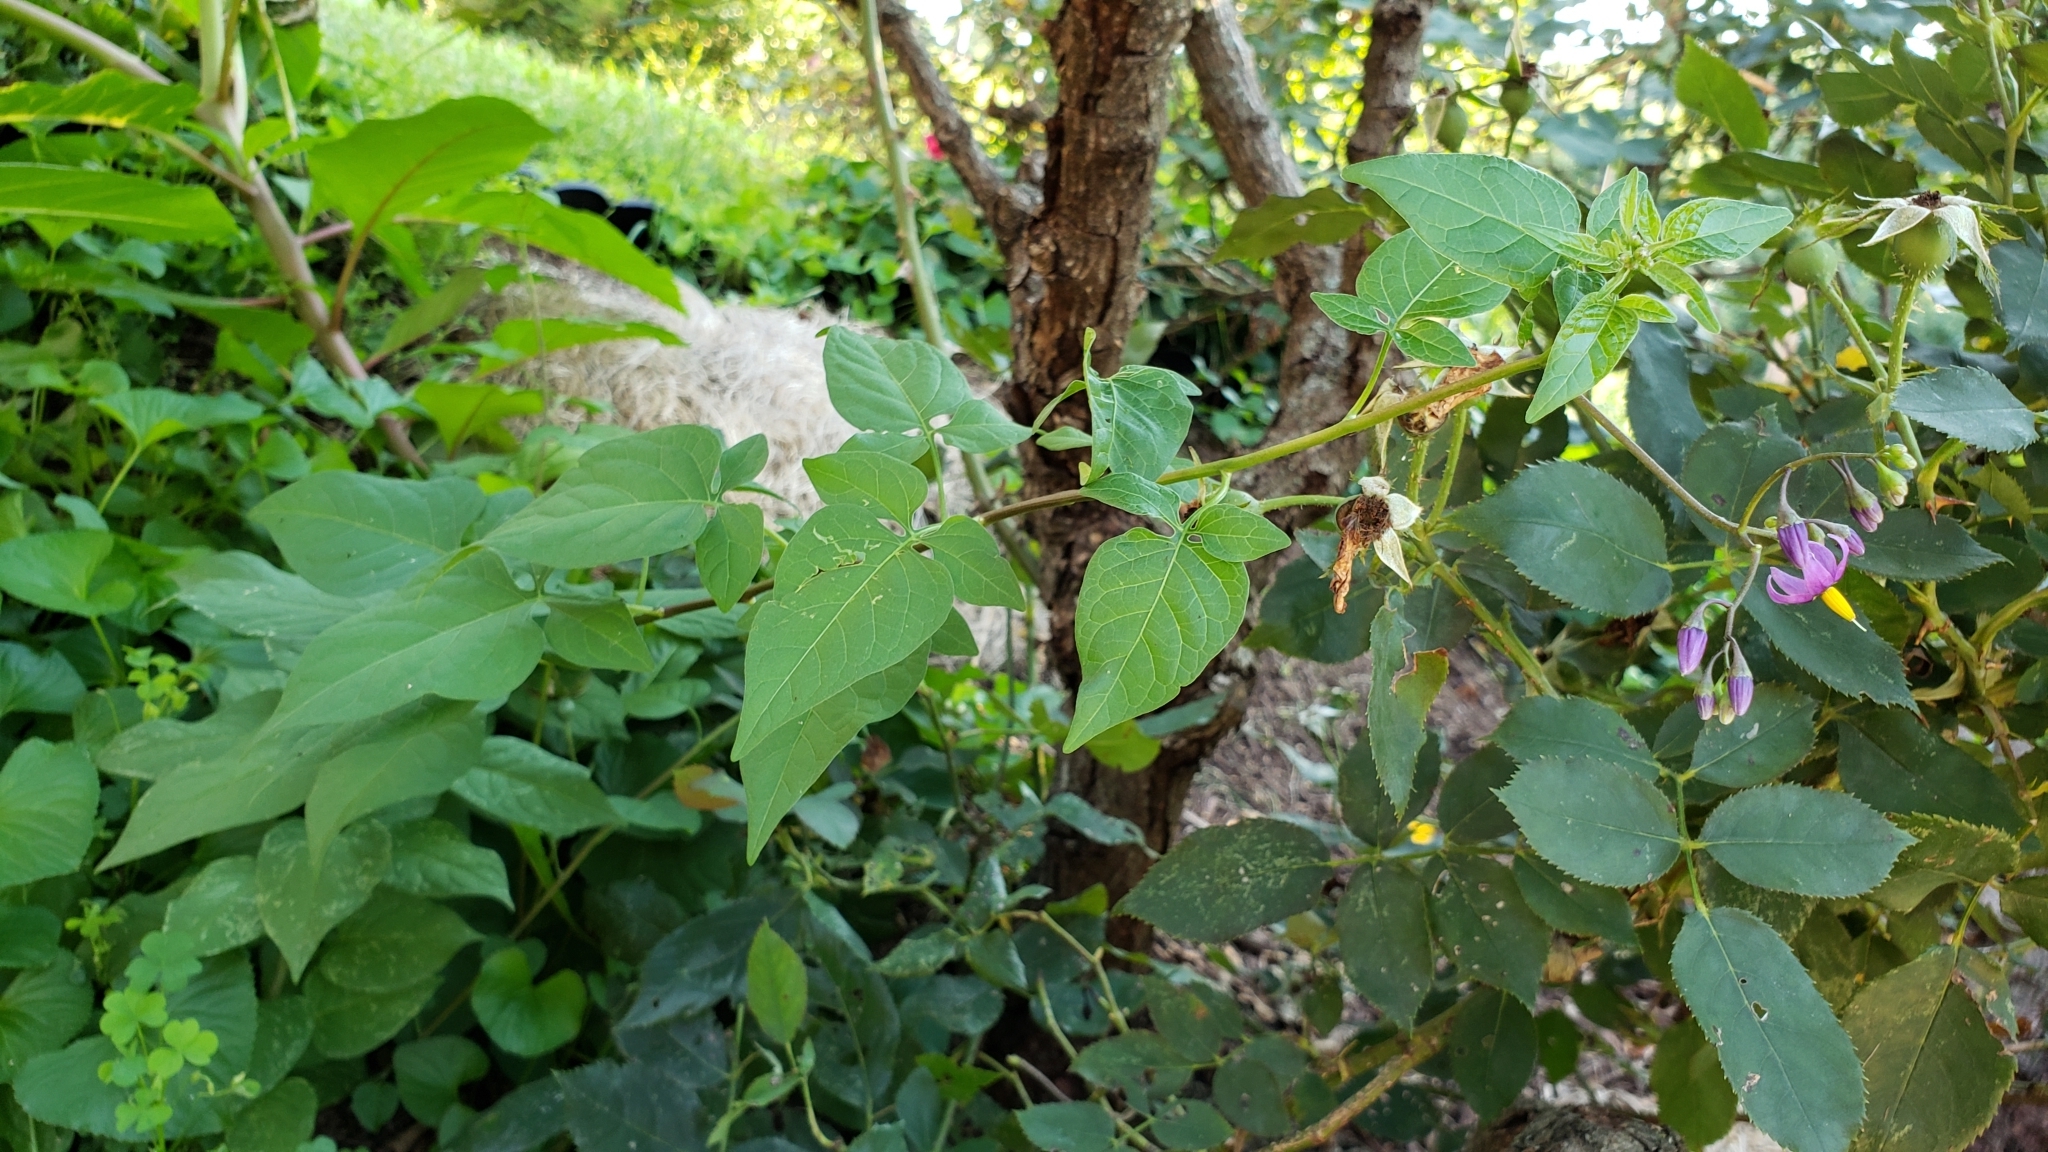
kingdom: Plantae
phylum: Tracheophyta
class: Magnoliopsida
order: Solanales
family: Solanaceae
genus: Solanum
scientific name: Solanum dulcamara
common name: Climbing nightshade
